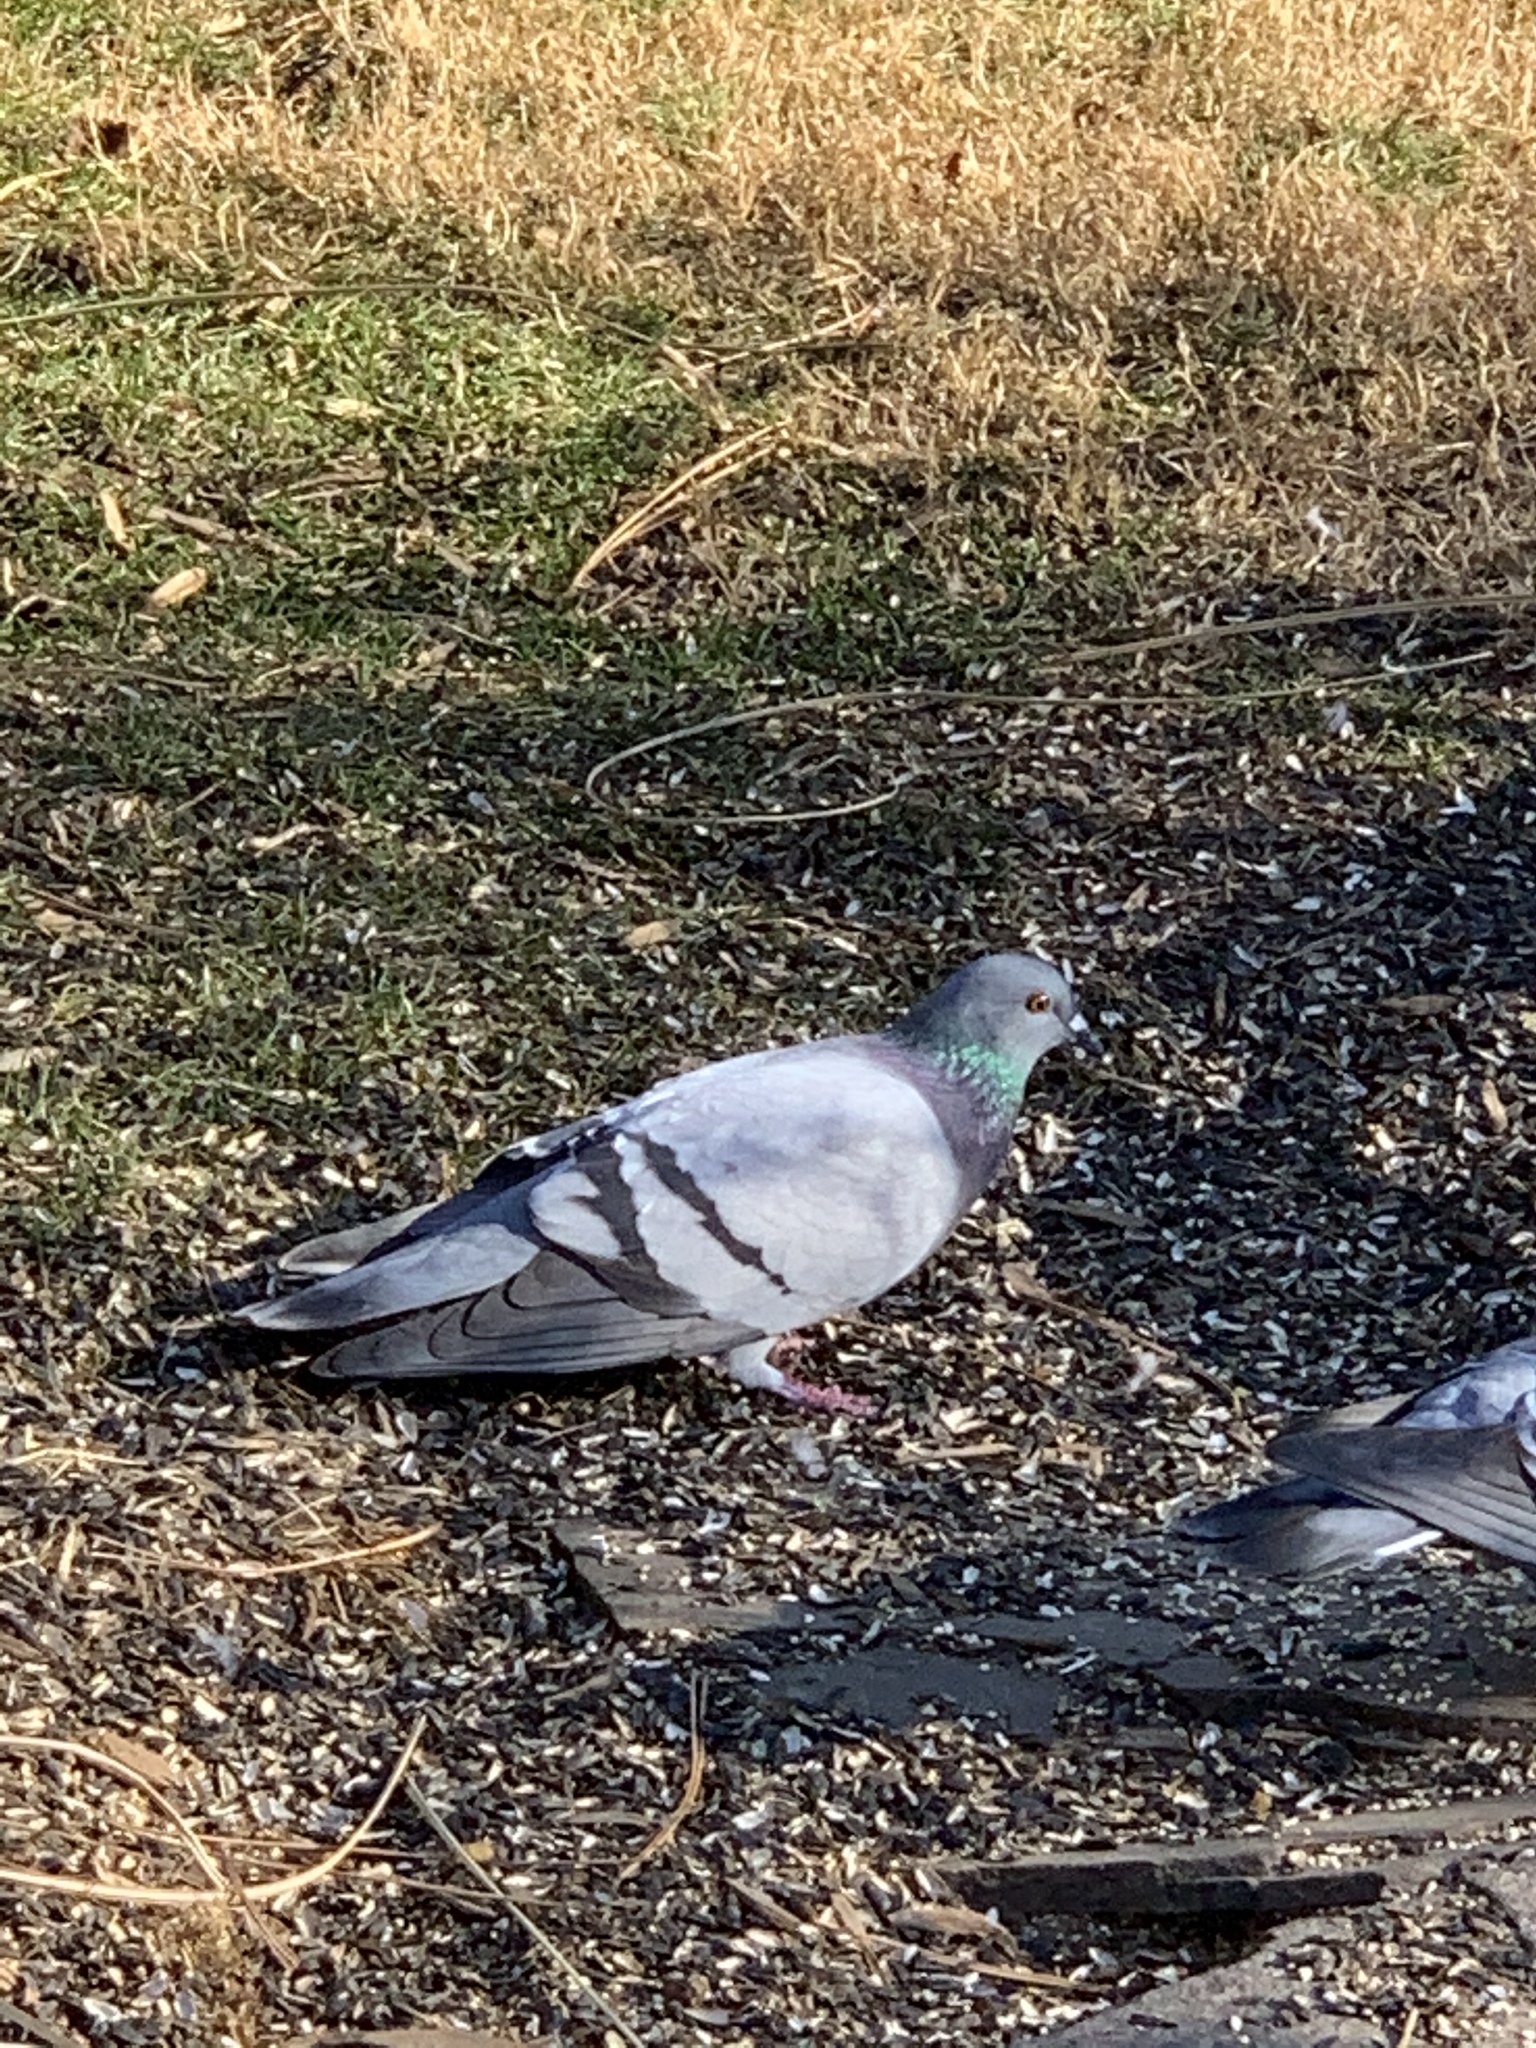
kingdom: Animalia
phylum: Chordata
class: Aves
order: Columbiformes
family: Columbidae
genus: Columba
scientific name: Columba livia
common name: Rock pigeon
